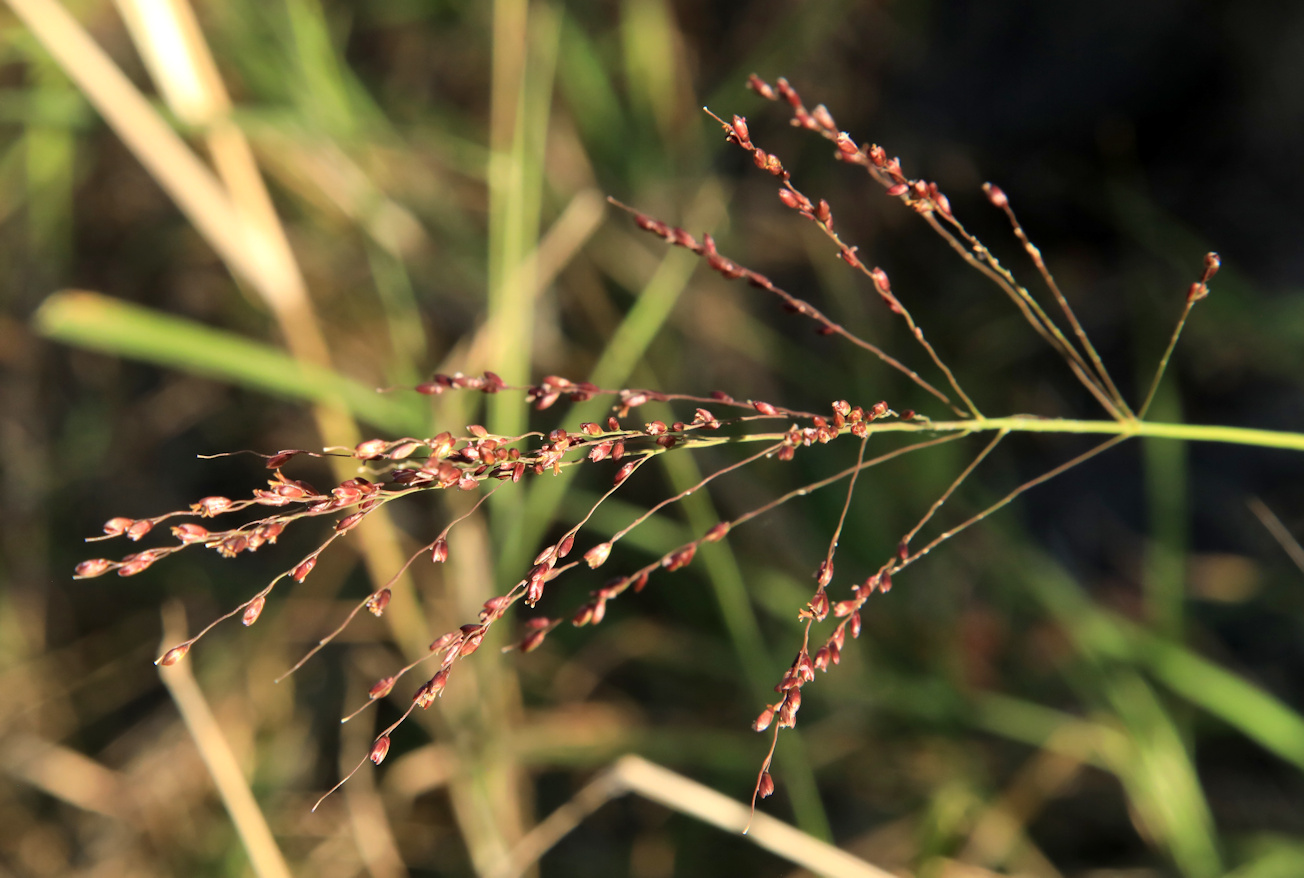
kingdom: Plantae
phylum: Tracheophyta
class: Liliopsida
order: Poales
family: Poaceae
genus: Megathyrsus
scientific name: Megathyrsus maximus
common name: Guineagrass
